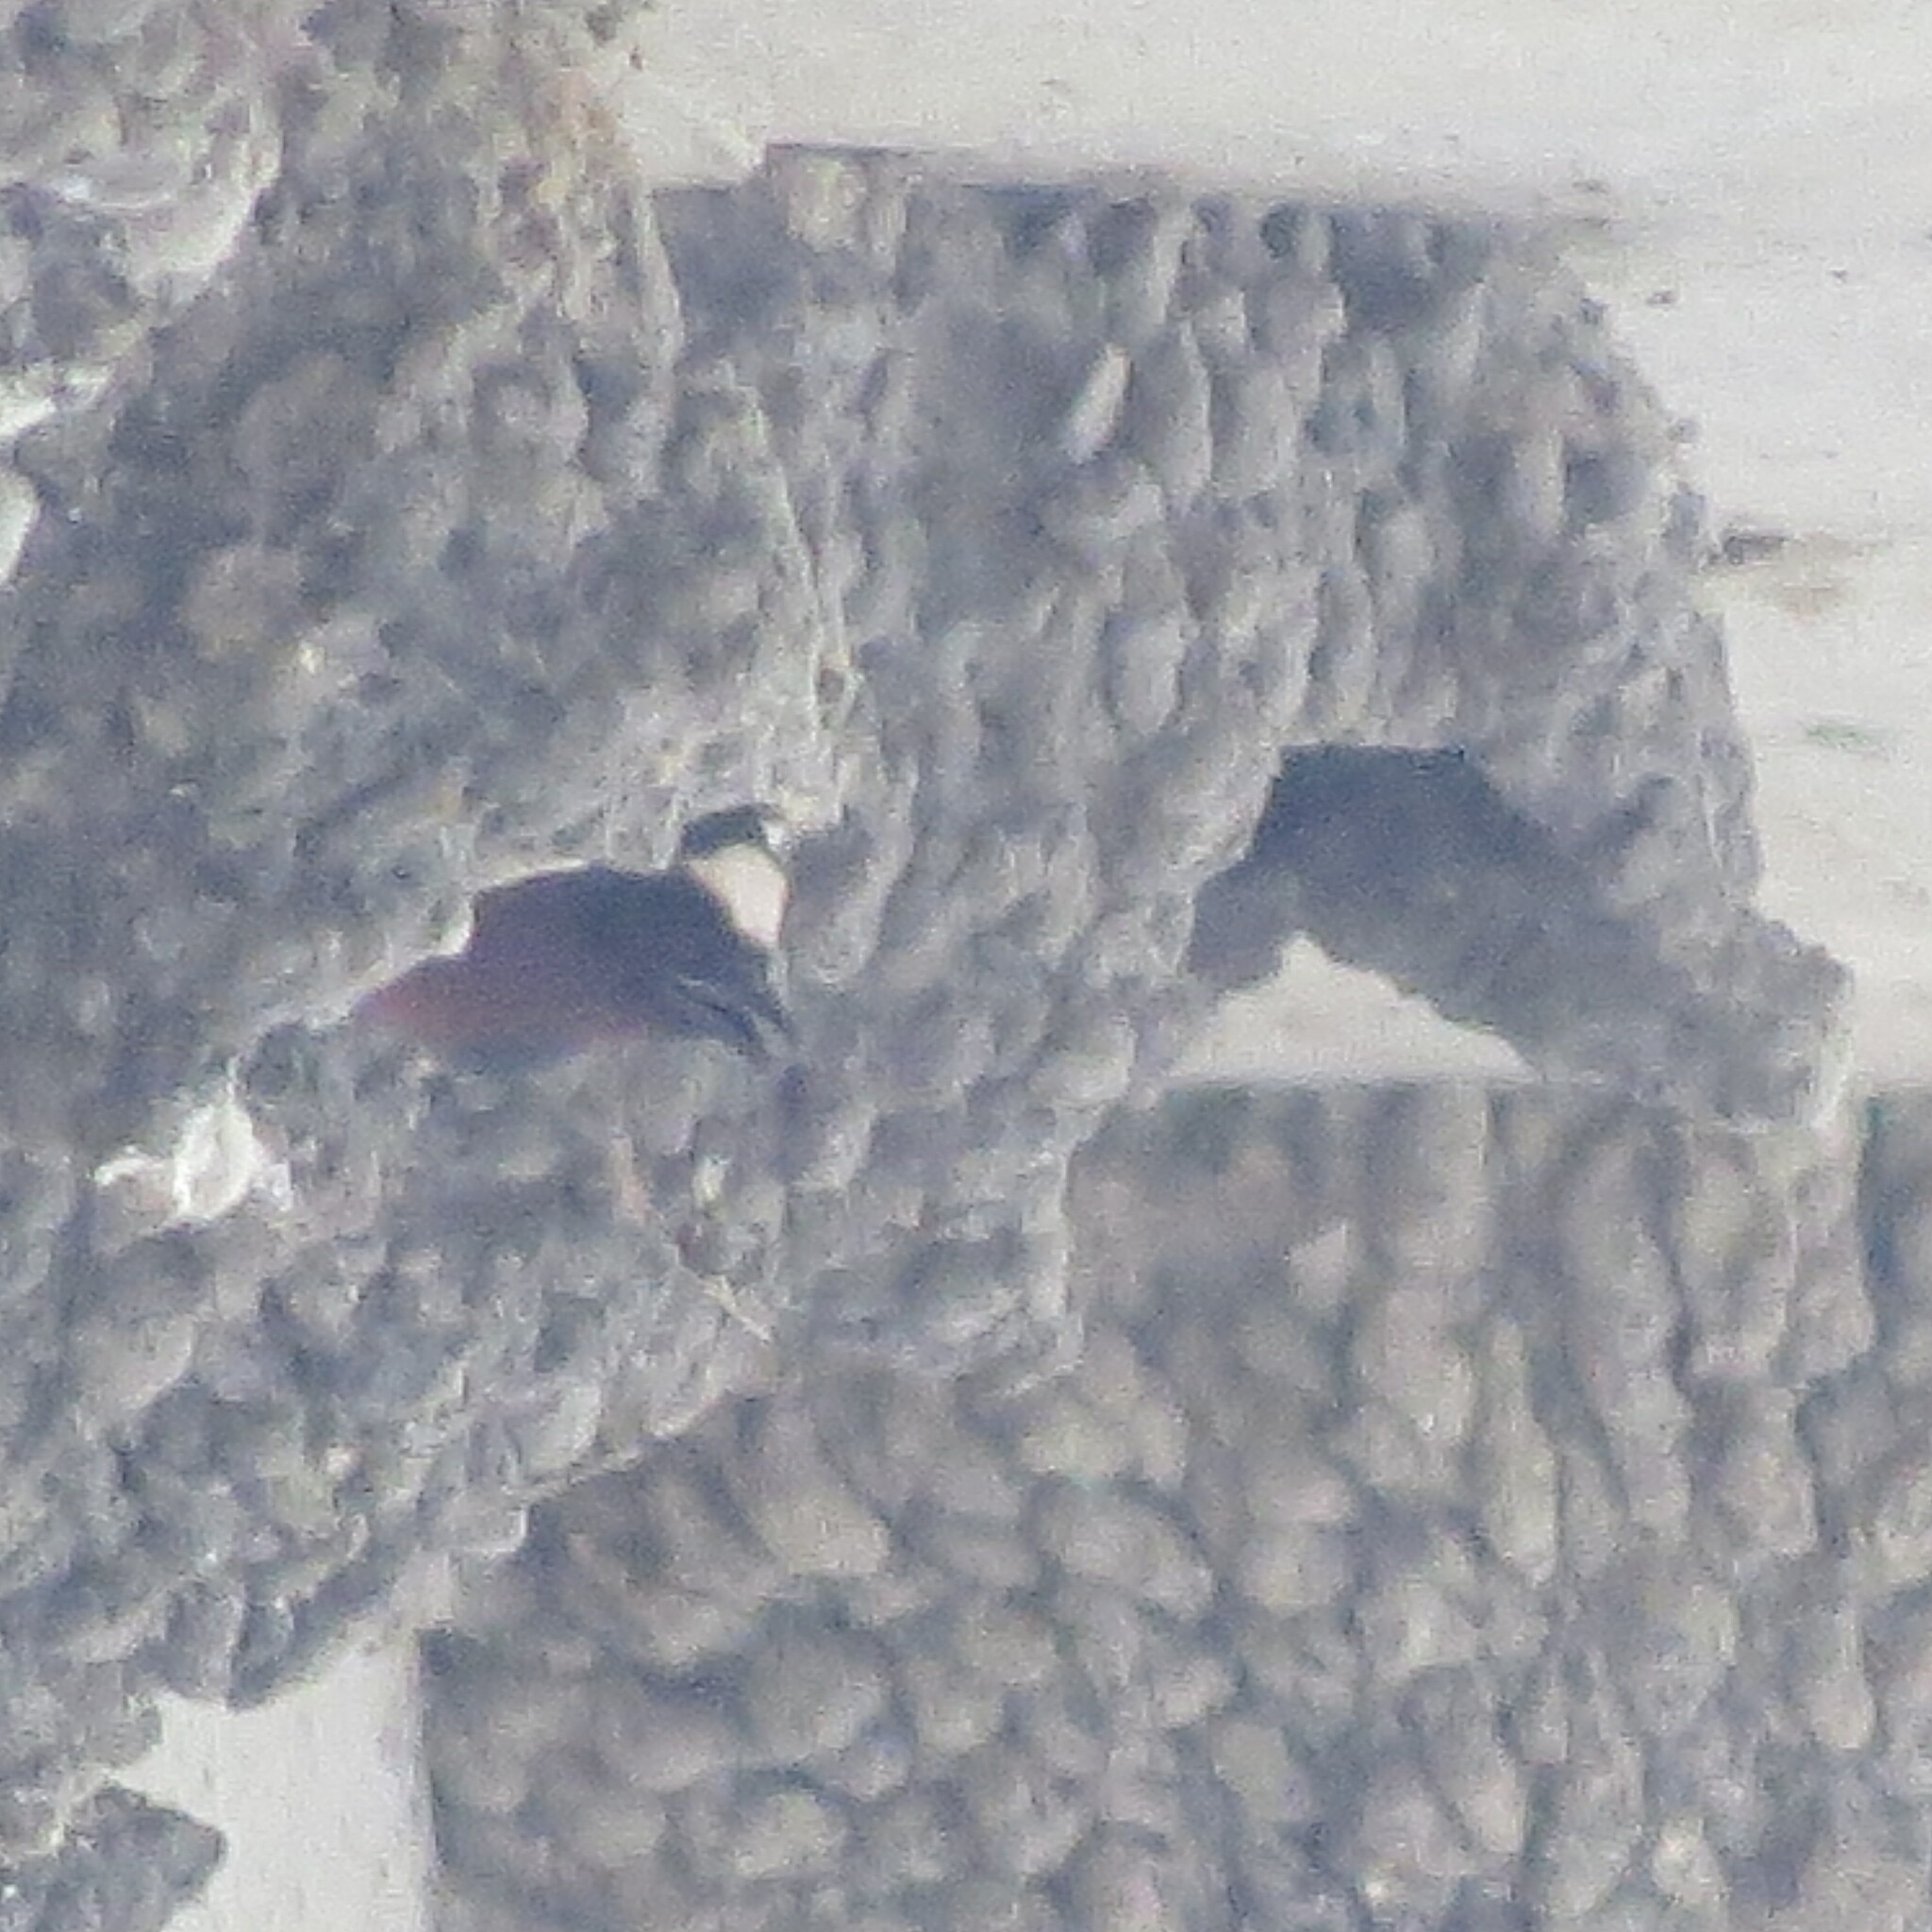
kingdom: Animalia
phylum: Chordata
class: Aves
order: Passeriformes
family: Hirundinidae
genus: Petrochelidon
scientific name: Petrochelidon pyrrhonota
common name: American cliff swallow
